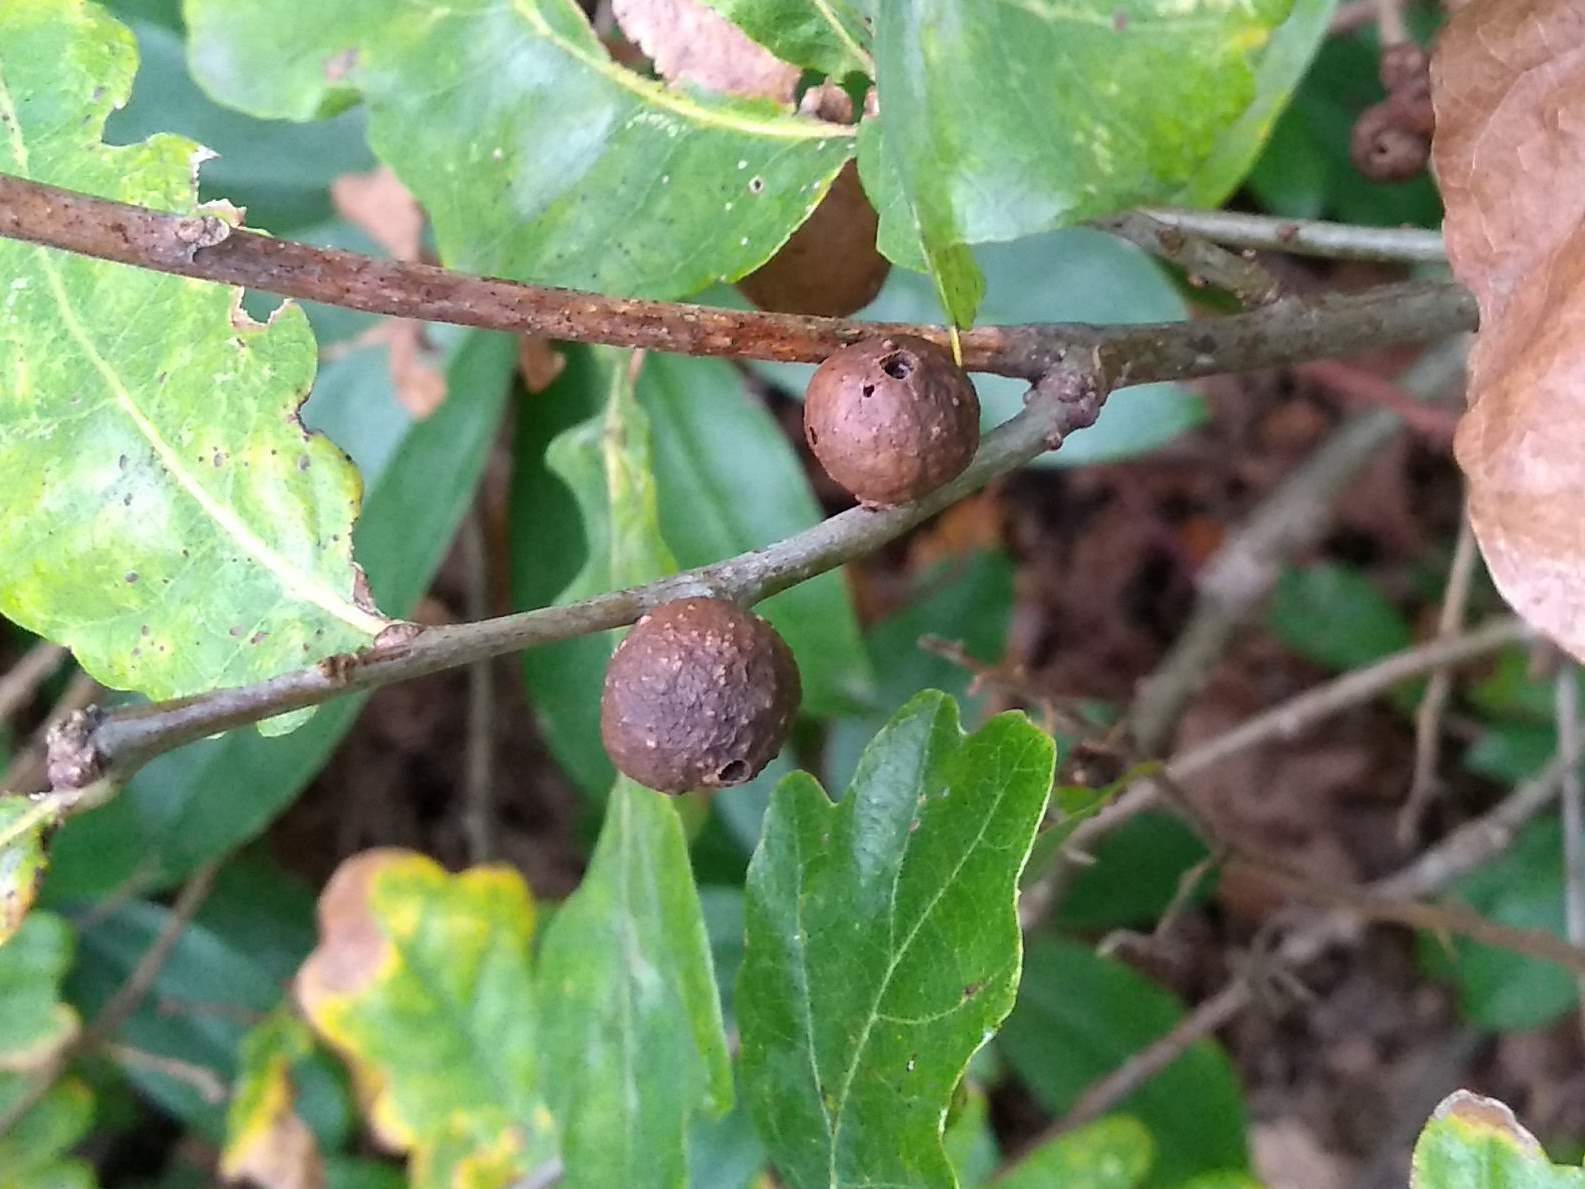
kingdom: Animalia
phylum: Arthropoda
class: Insecta
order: Hymenoptera
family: Cynipidae
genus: Andricus
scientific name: Andricus kollari
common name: Marble gall
